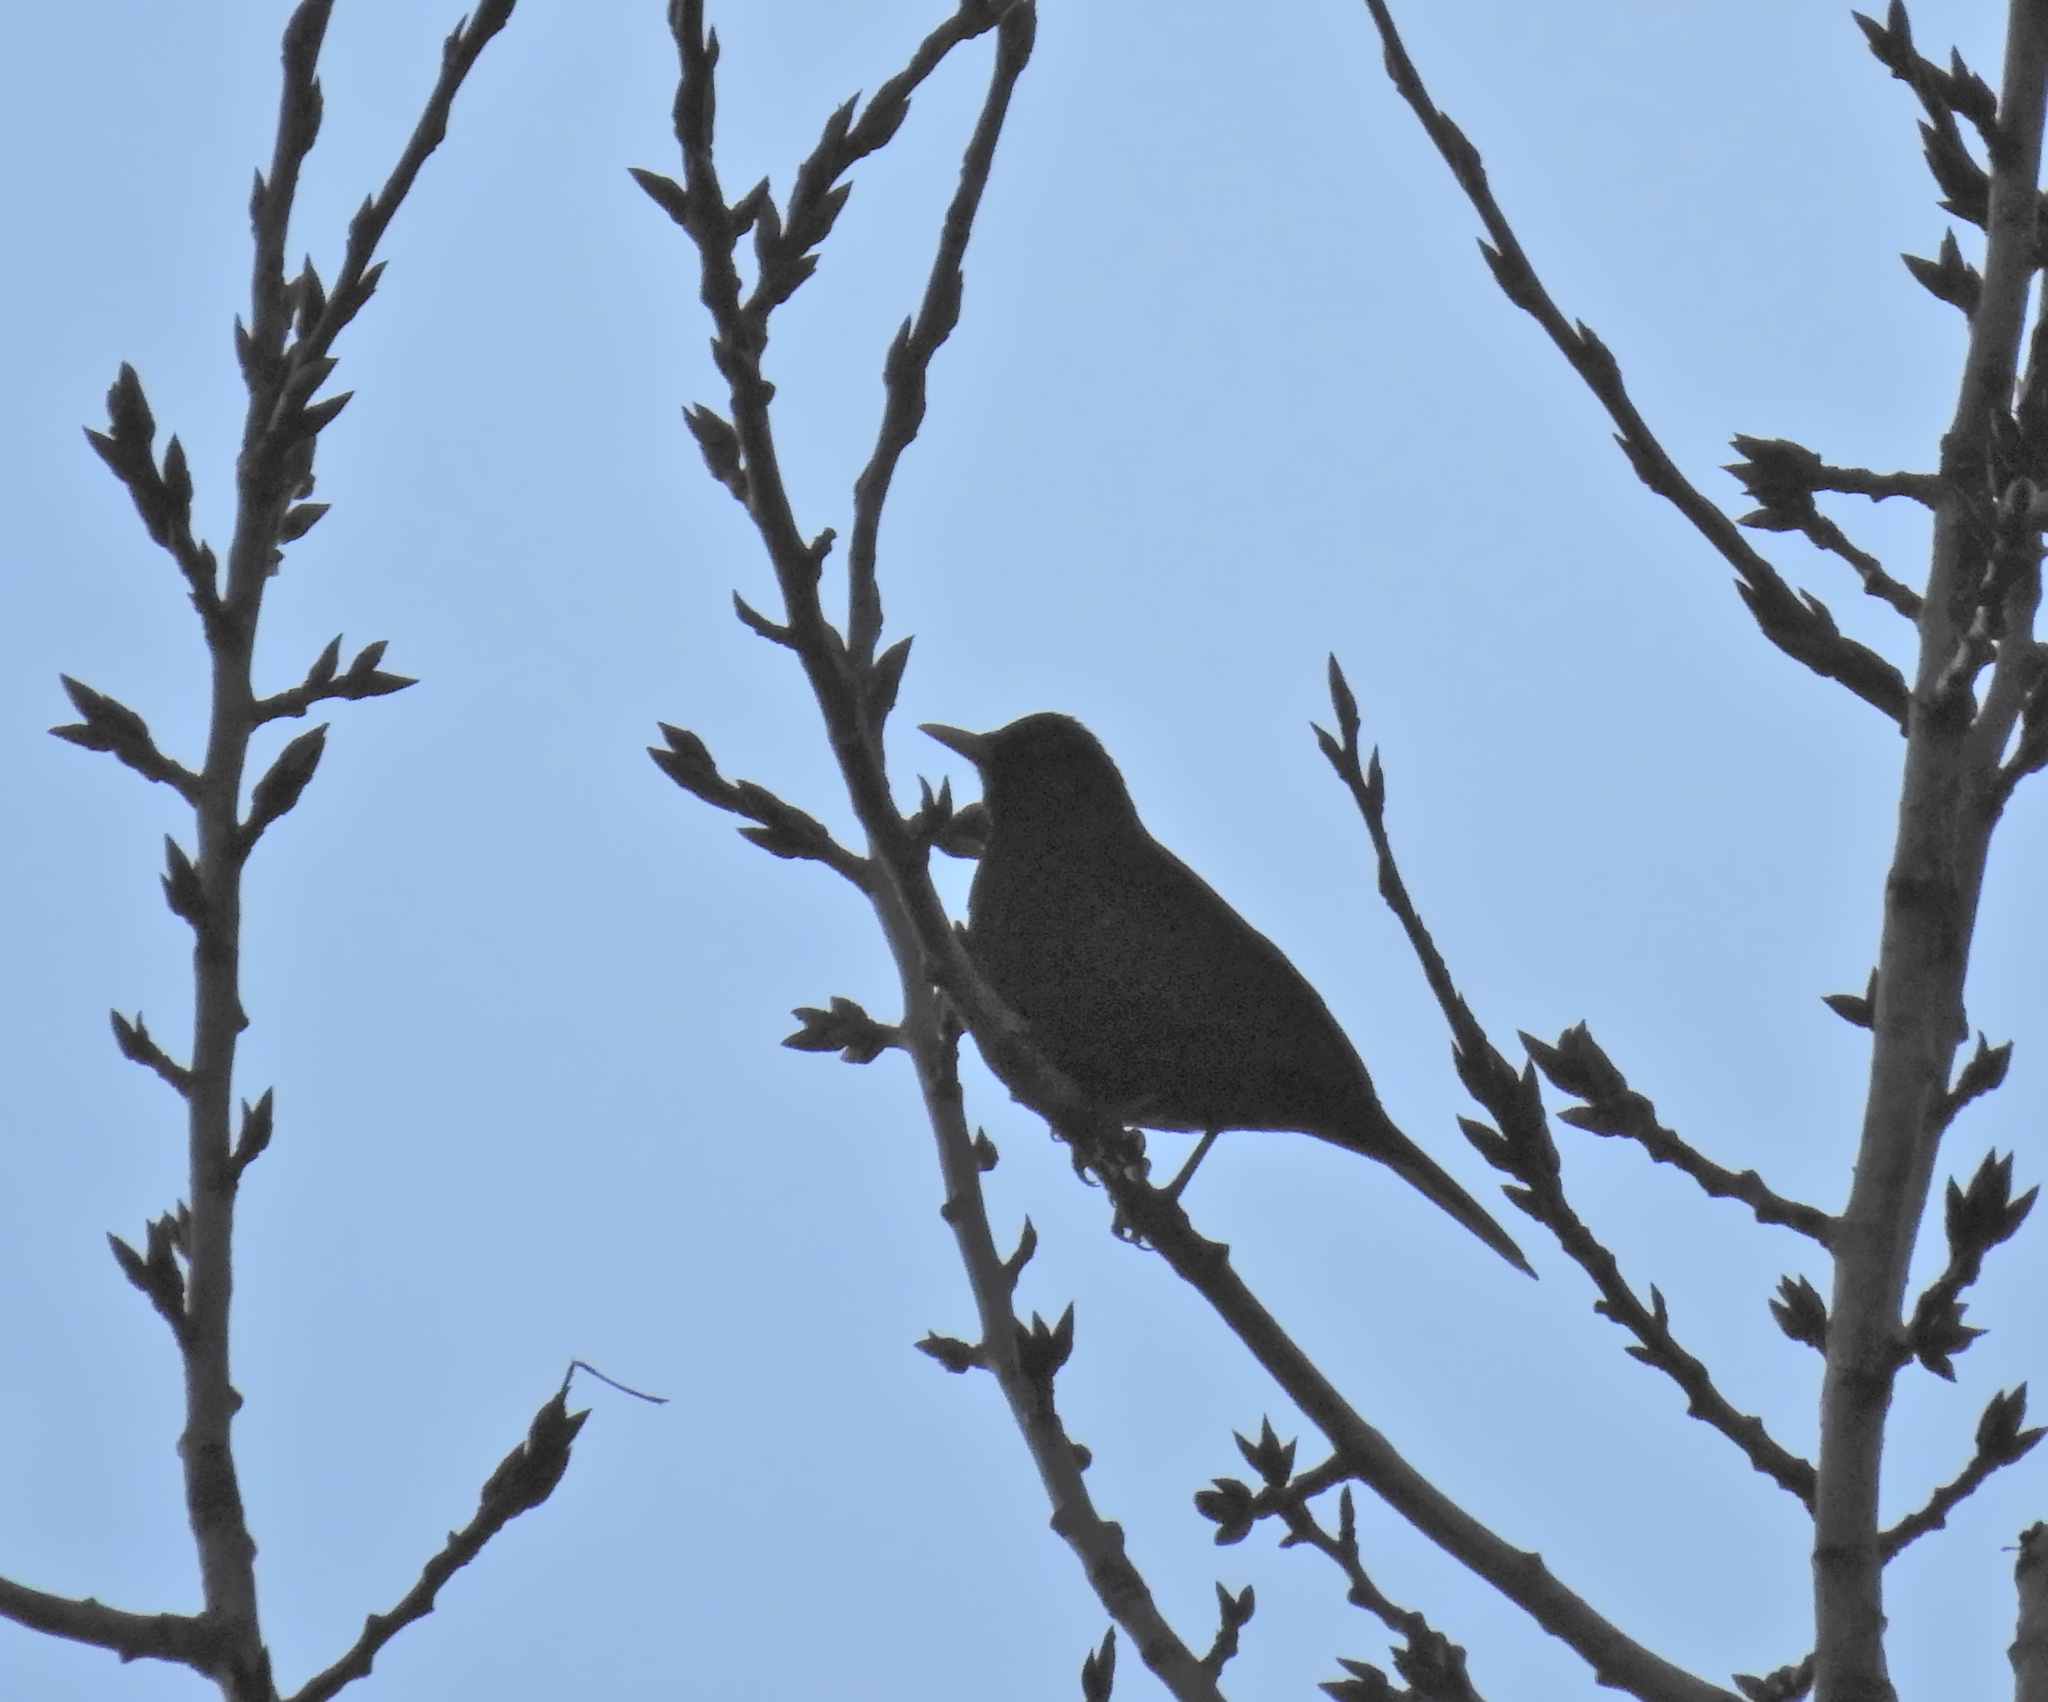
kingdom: Animalia
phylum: Chordata
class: Aves
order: Passeriformes
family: Turdidae
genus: Turdus
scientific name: Turdus merula
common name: Common blackbird
